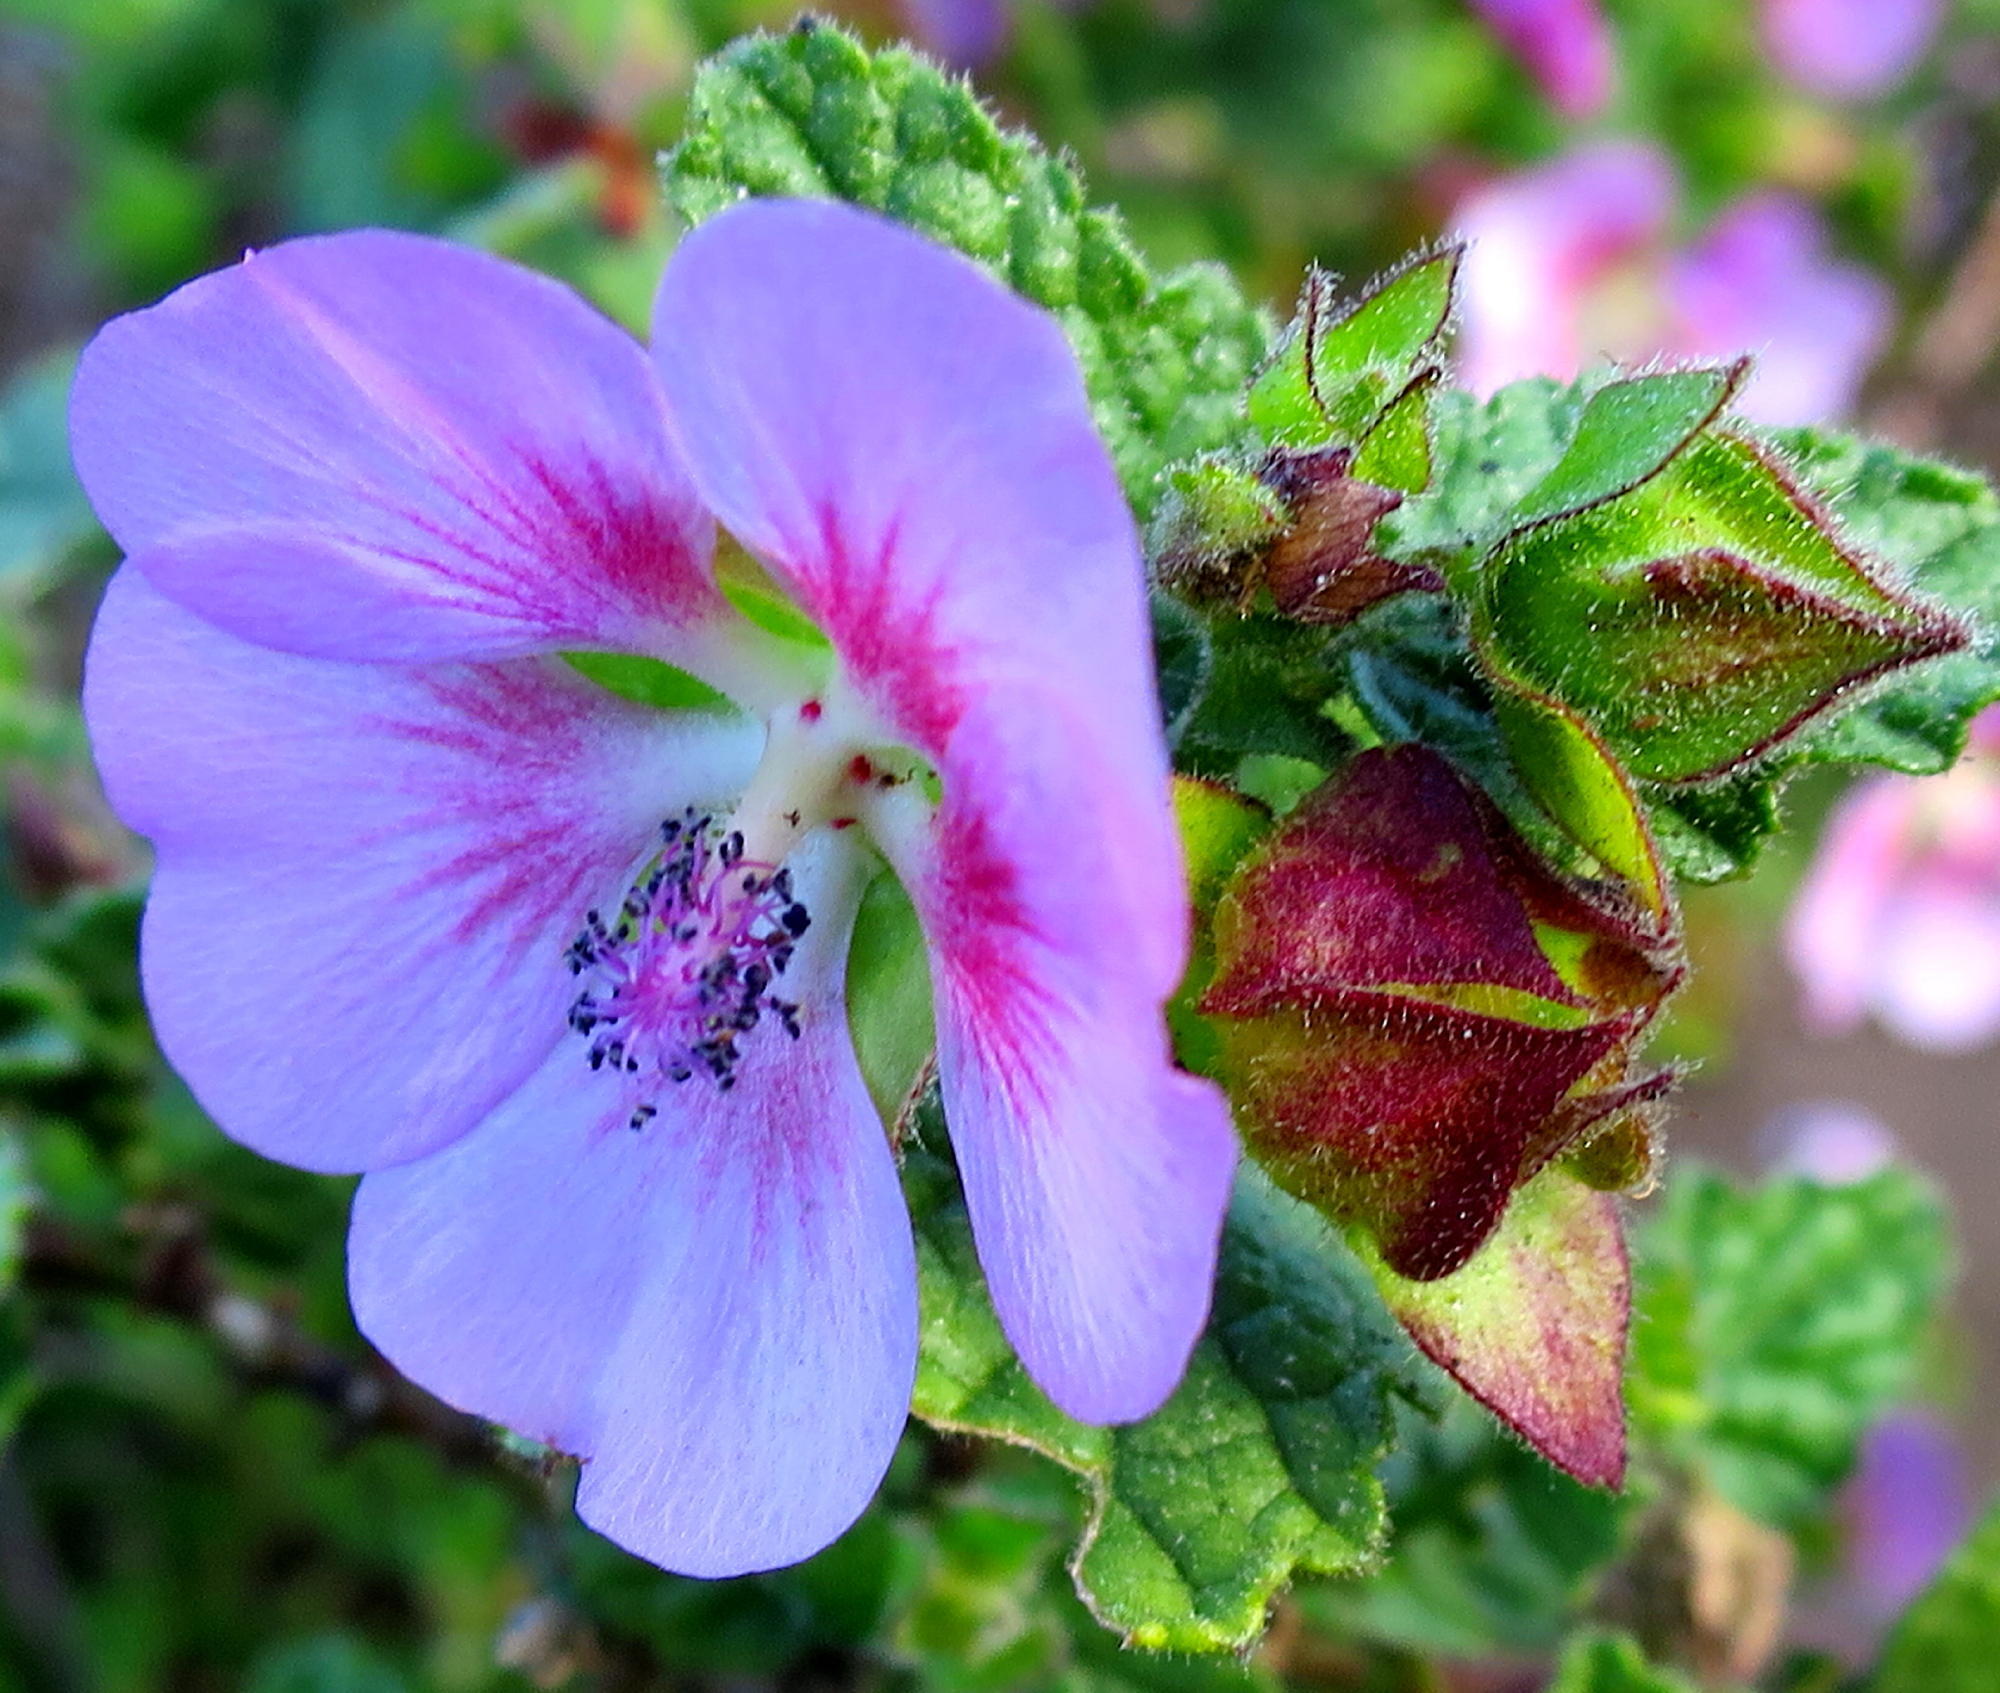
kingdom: Plantae
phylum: Tracheophyta
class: Magnoliopsida
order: Malvales
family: Malvaceae
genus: Anisodontea
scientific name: Anisodontea scabrosa
